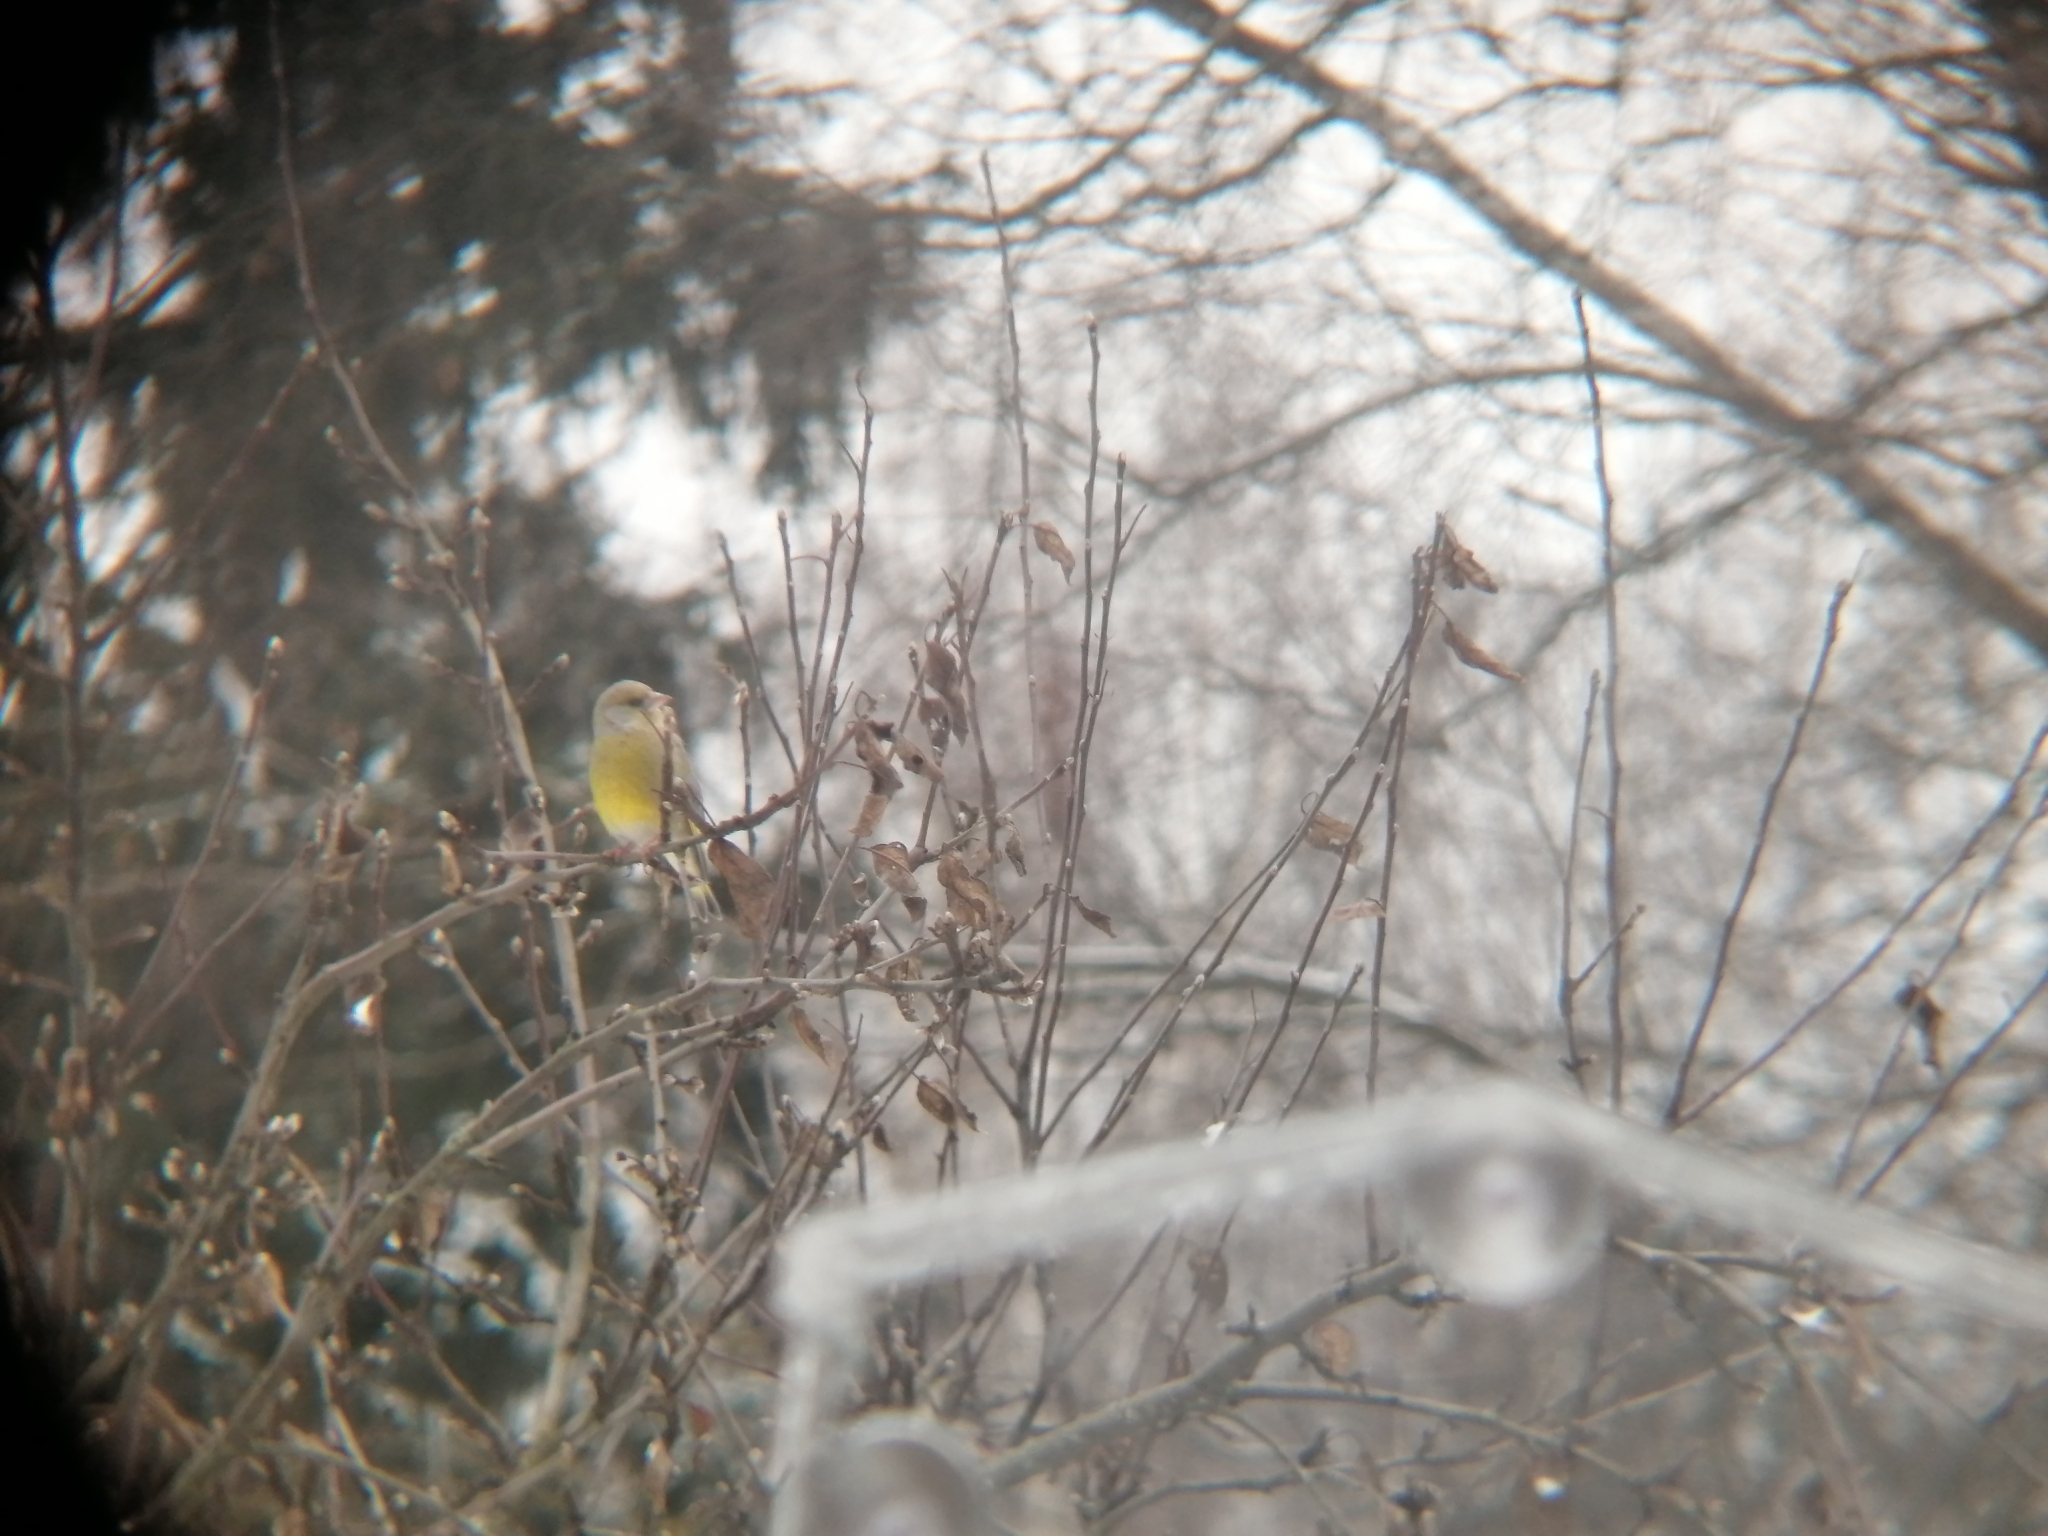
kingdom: Plantae
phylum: Tracheophyta
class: Liliopsida
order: Poales
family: Poaceae
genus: Chloris
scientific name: Chloris chloris
